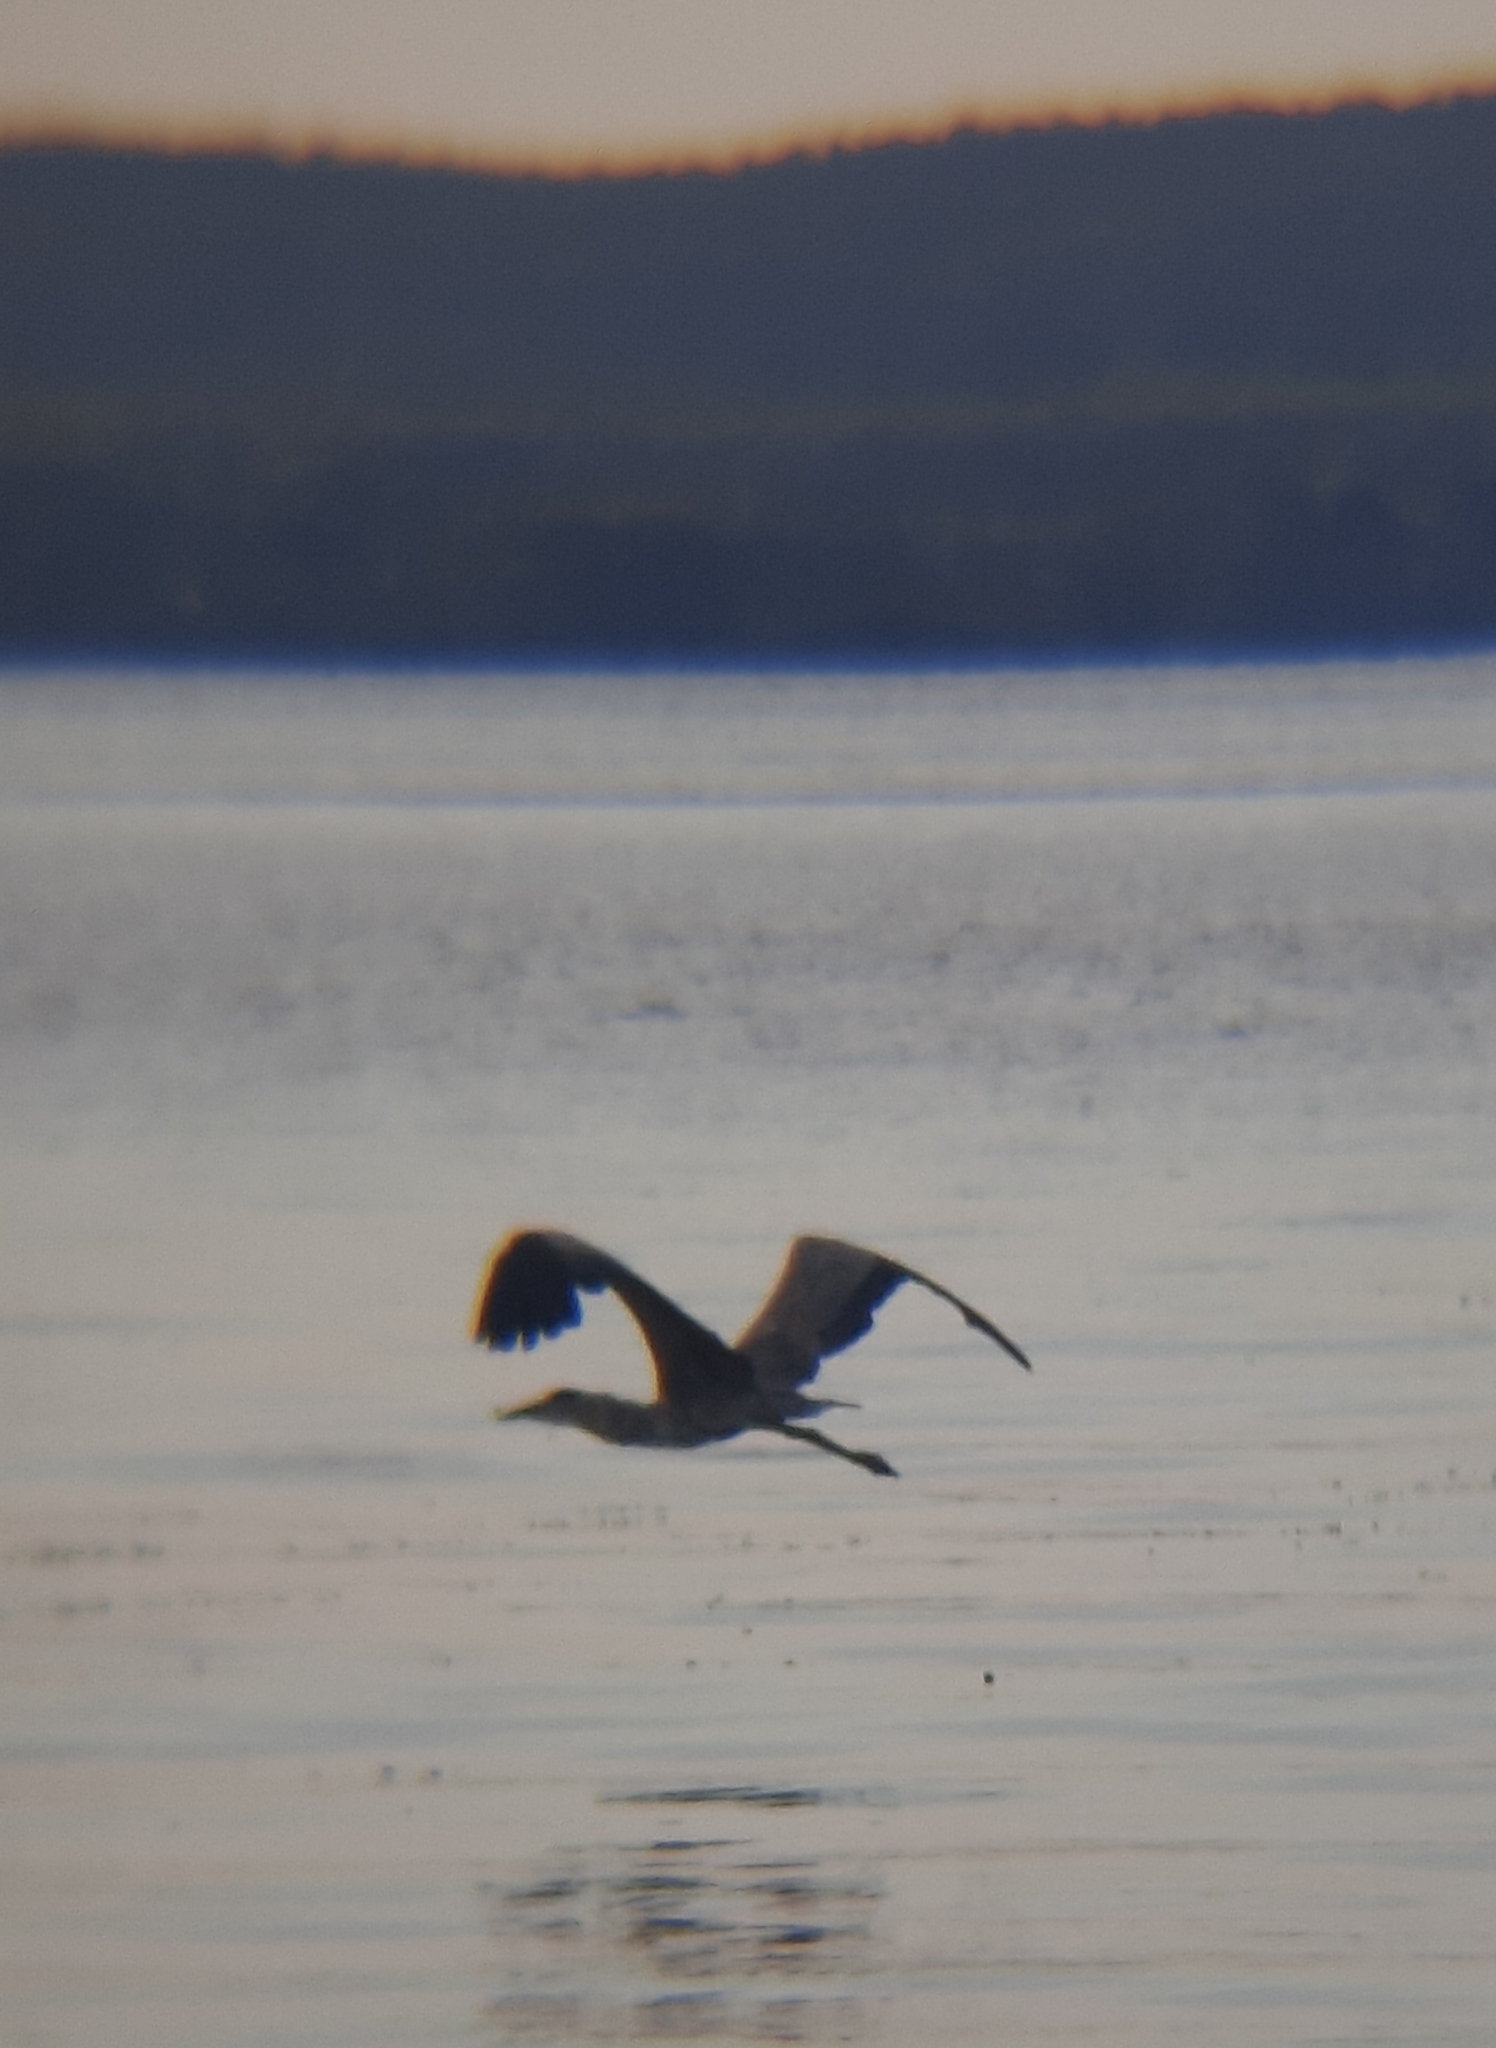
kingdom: Animalia
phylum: Chordata
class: Aves
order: Pelecaniformes
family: Ardeidae
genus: Ardea
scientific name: Ardea cinerea
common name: Grey heron
